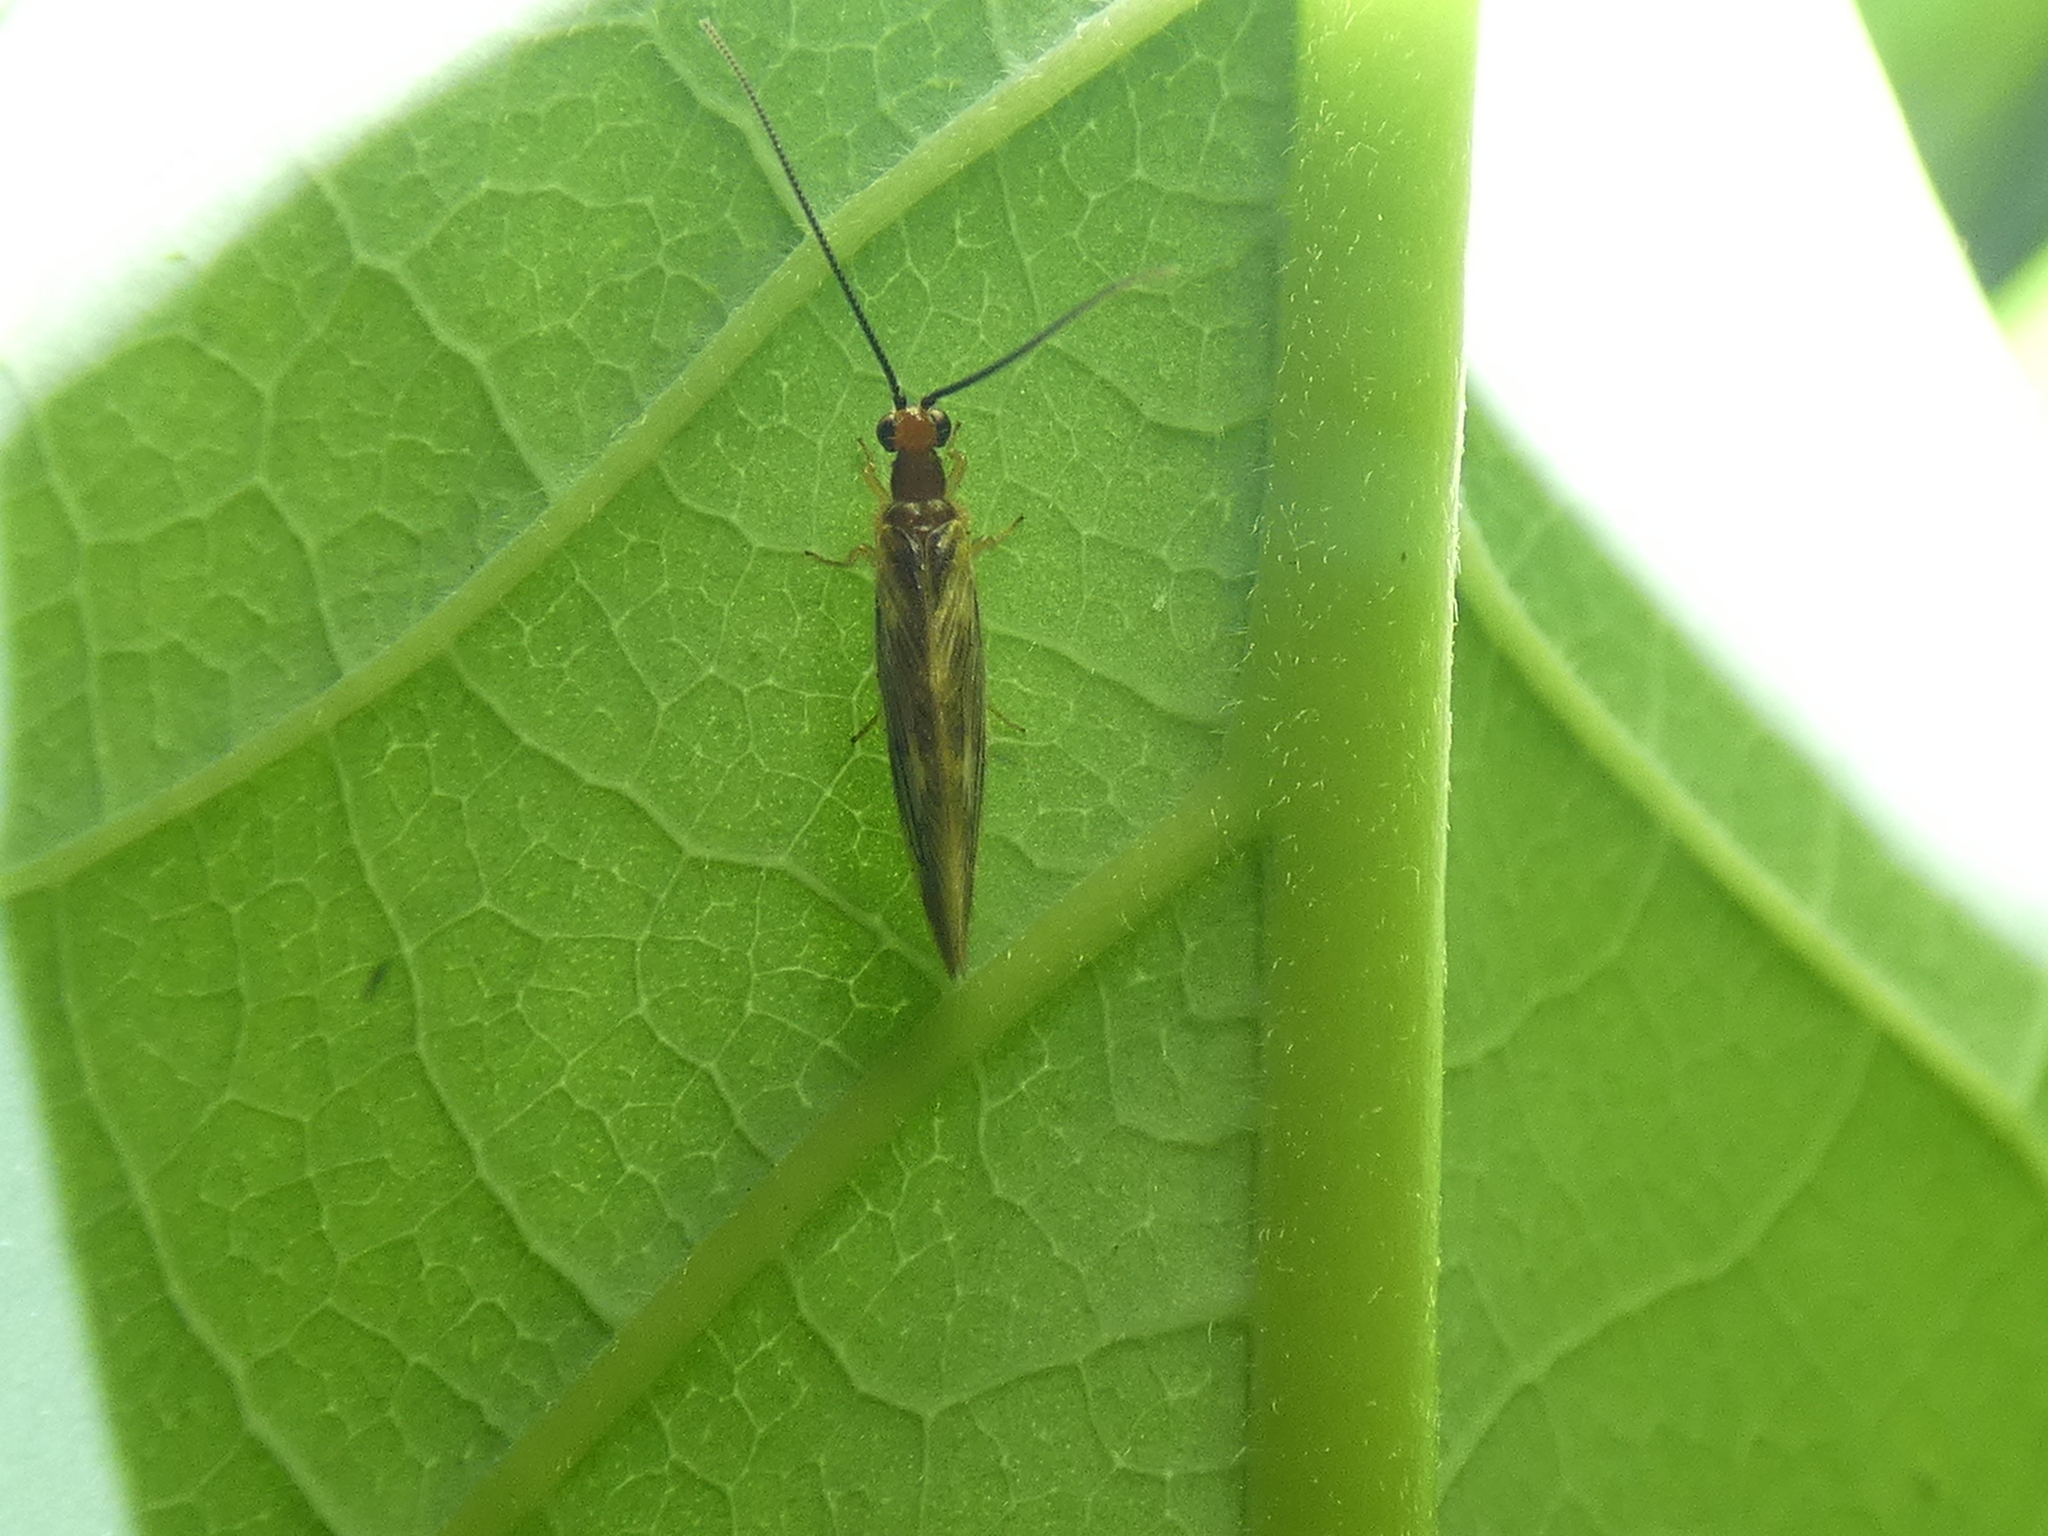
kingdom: Animalia
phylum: Arthropoda
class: Insecta
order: Neuroptera
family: Sisyridae
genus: Climacia
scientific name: Climacia areolaris
